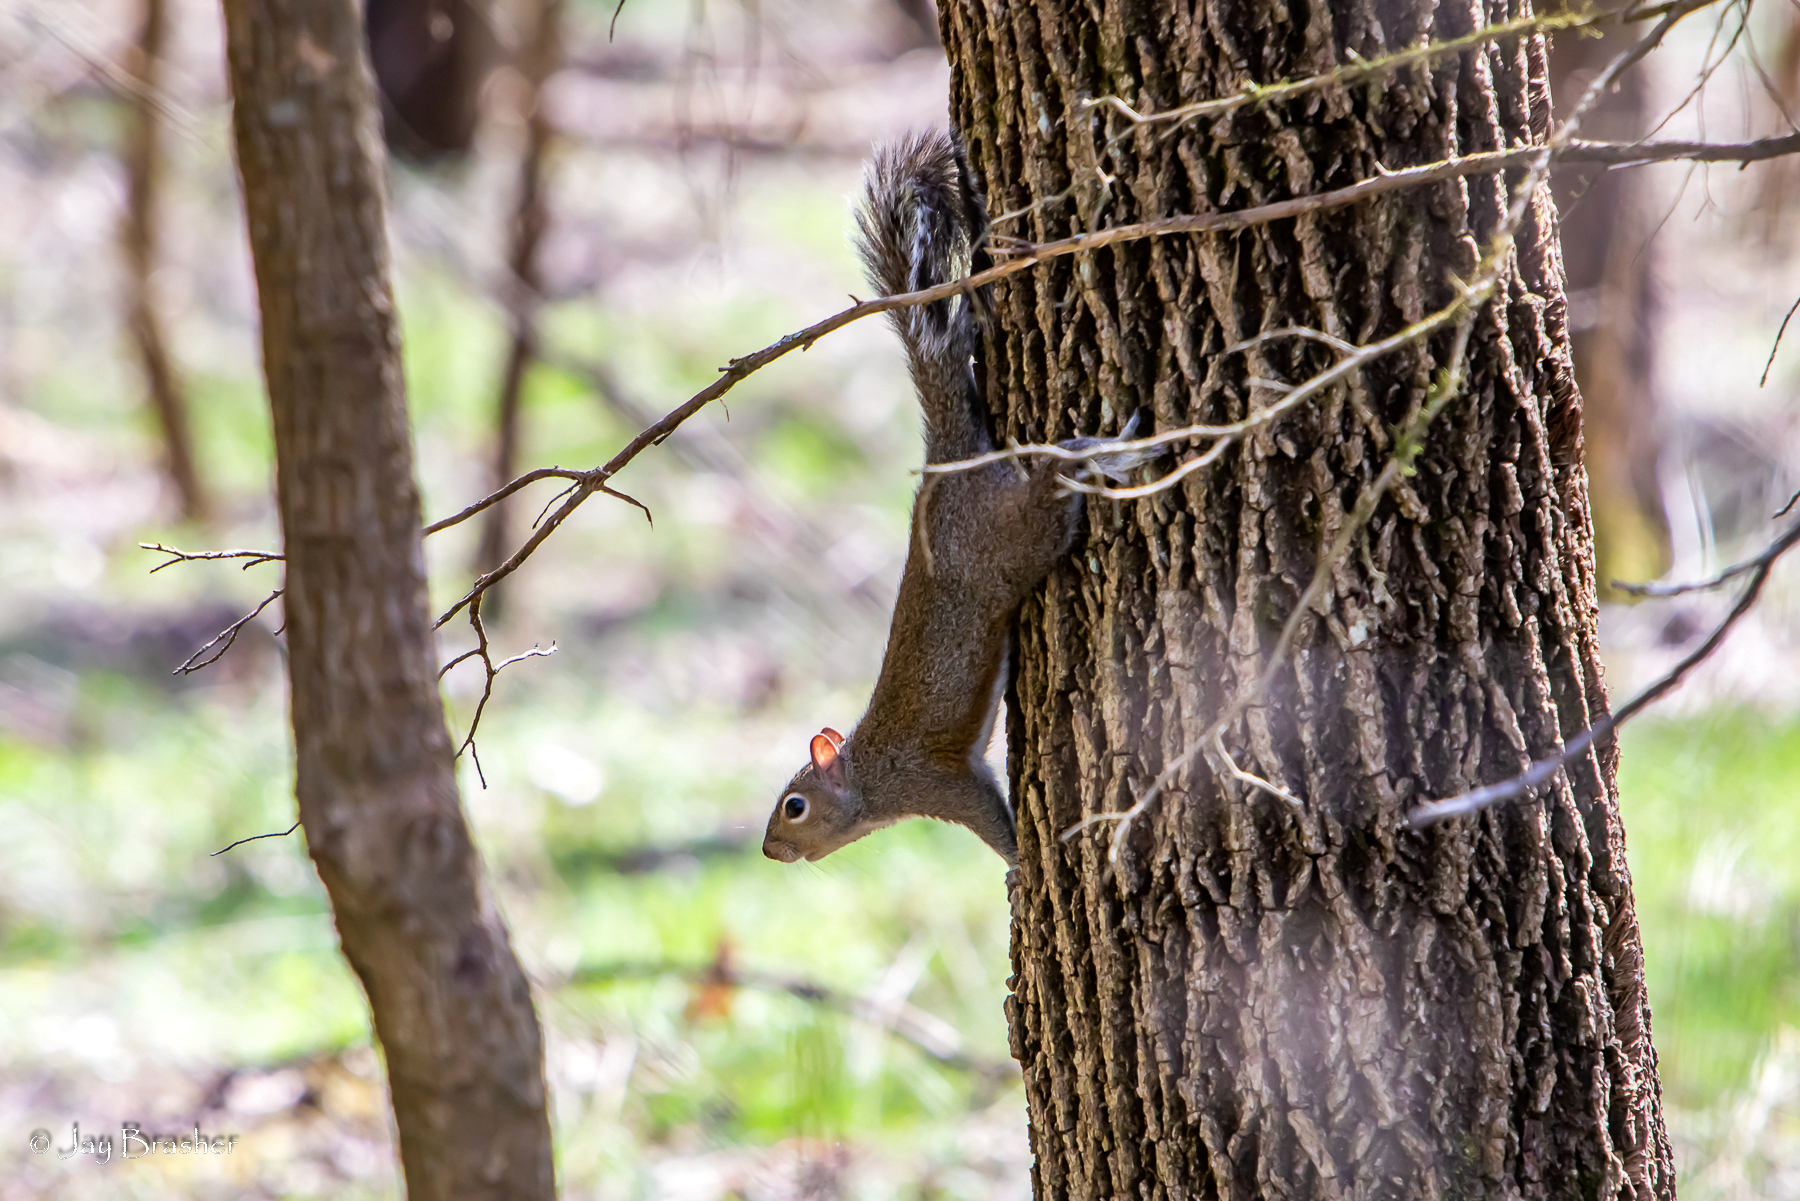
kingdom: Animalia
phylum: Chordata
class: Mammalia
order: Rodentia
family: Sciuridae
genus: Sciurus
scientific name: Sciurus carolinensis
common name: Eastern gray squirrel
